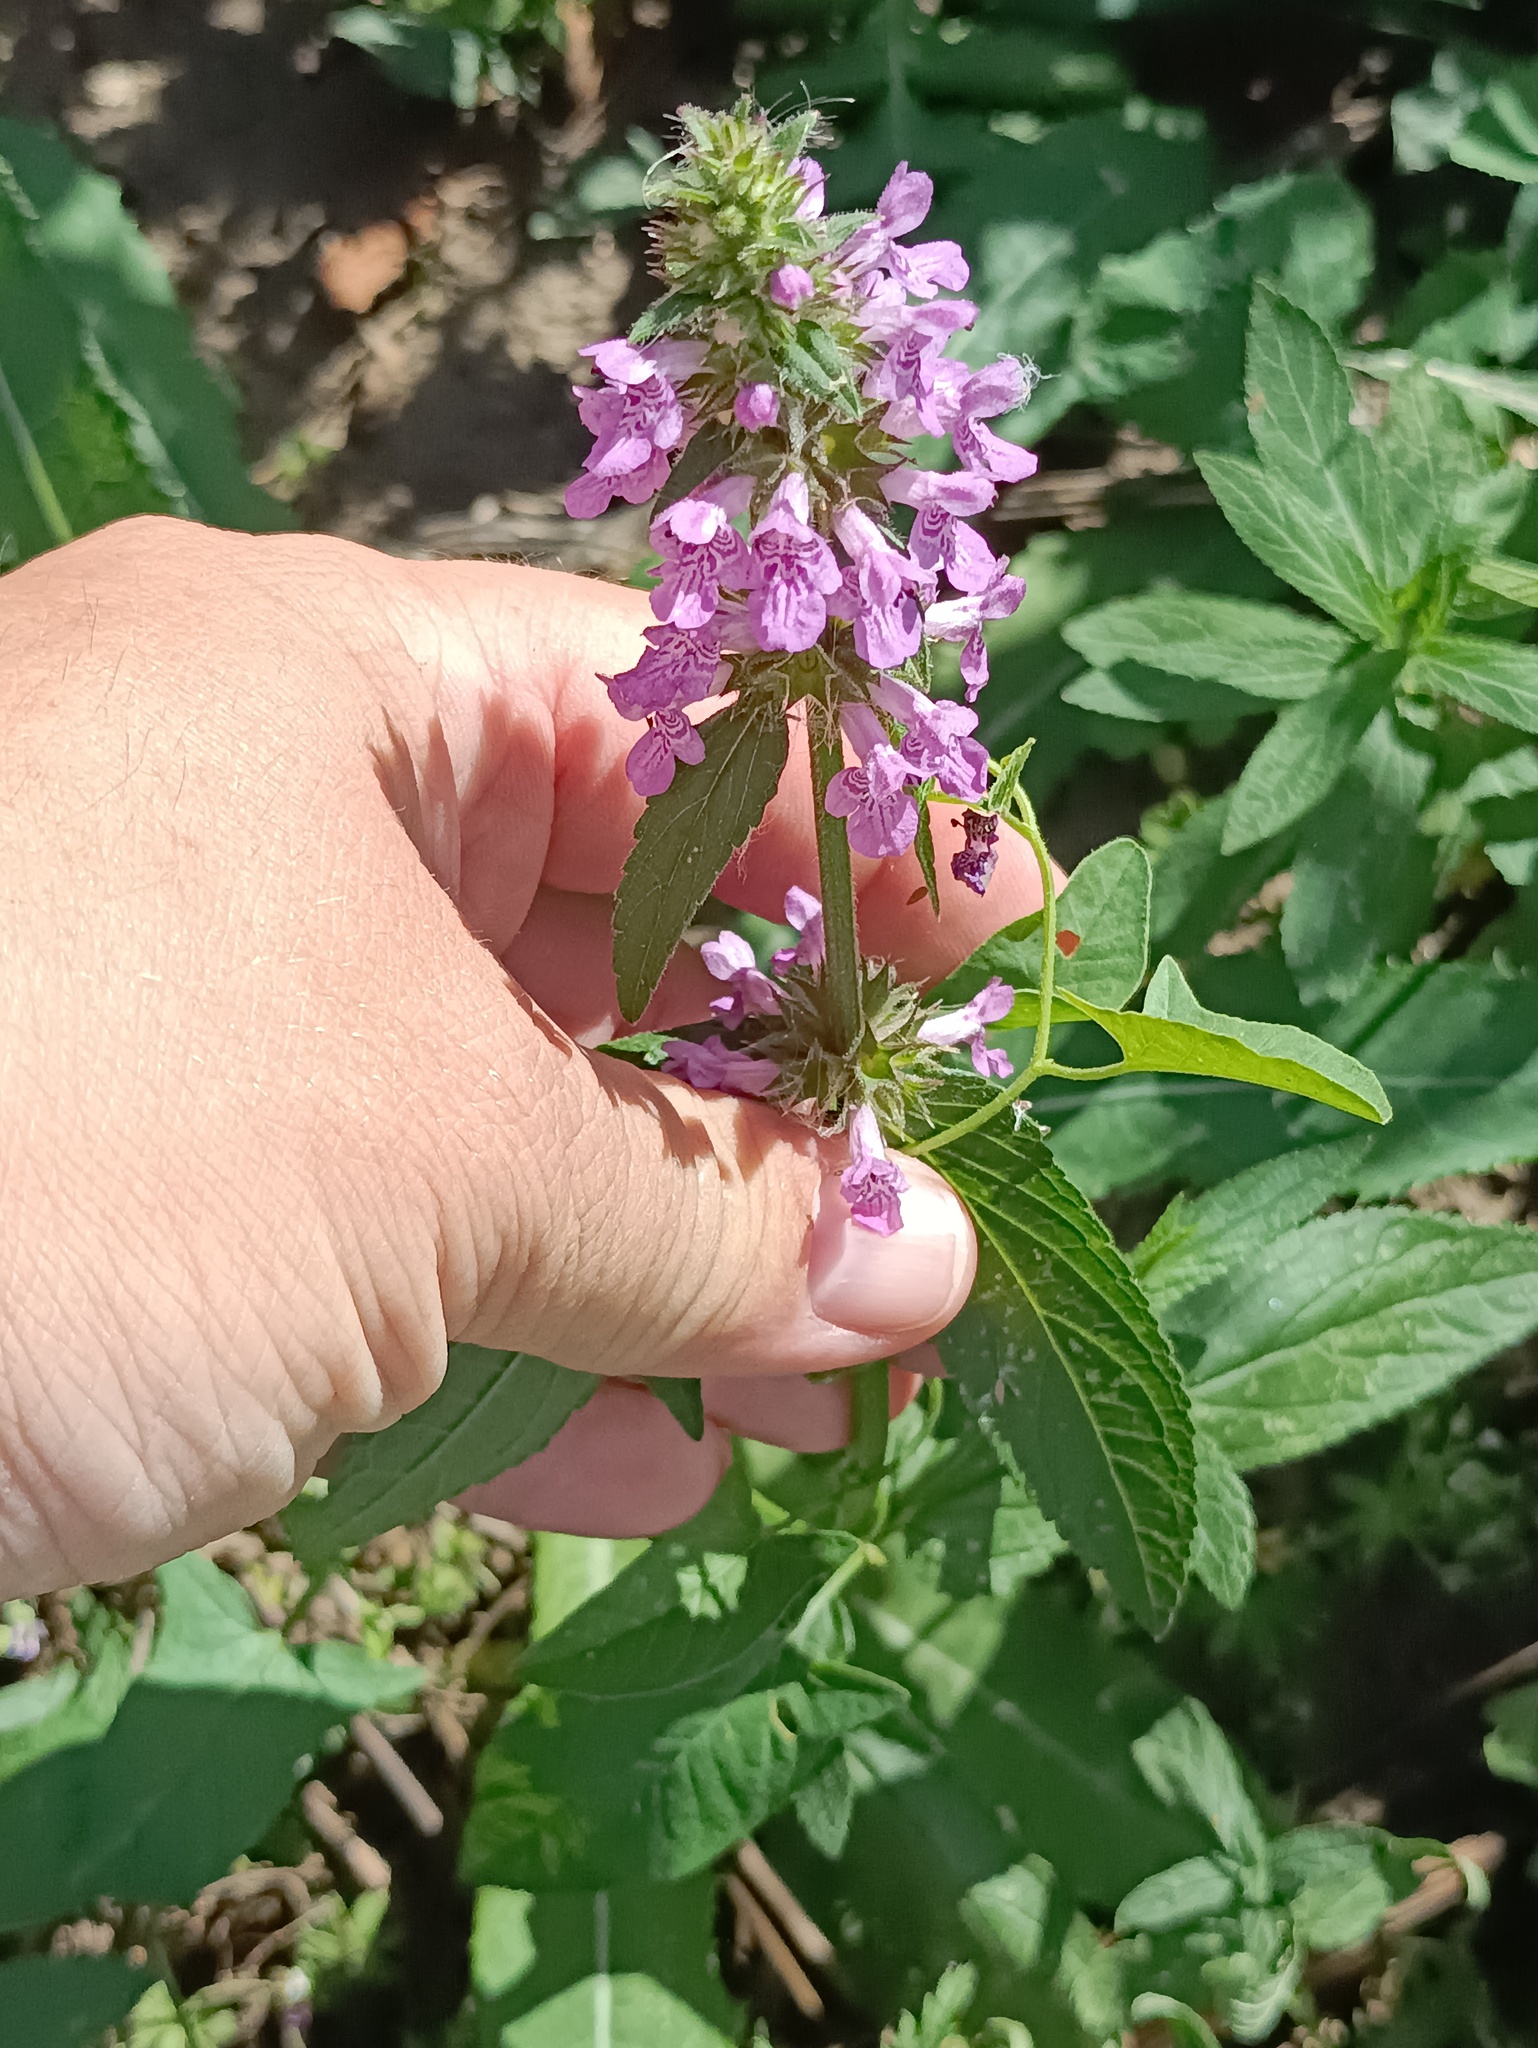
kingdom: Plantae
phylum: Tracheophyta
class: Magnoliopsida
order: Lamiales
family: Lamiaceae
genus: Stachys
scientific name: Stachys palustris
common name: Marsh woundwort
